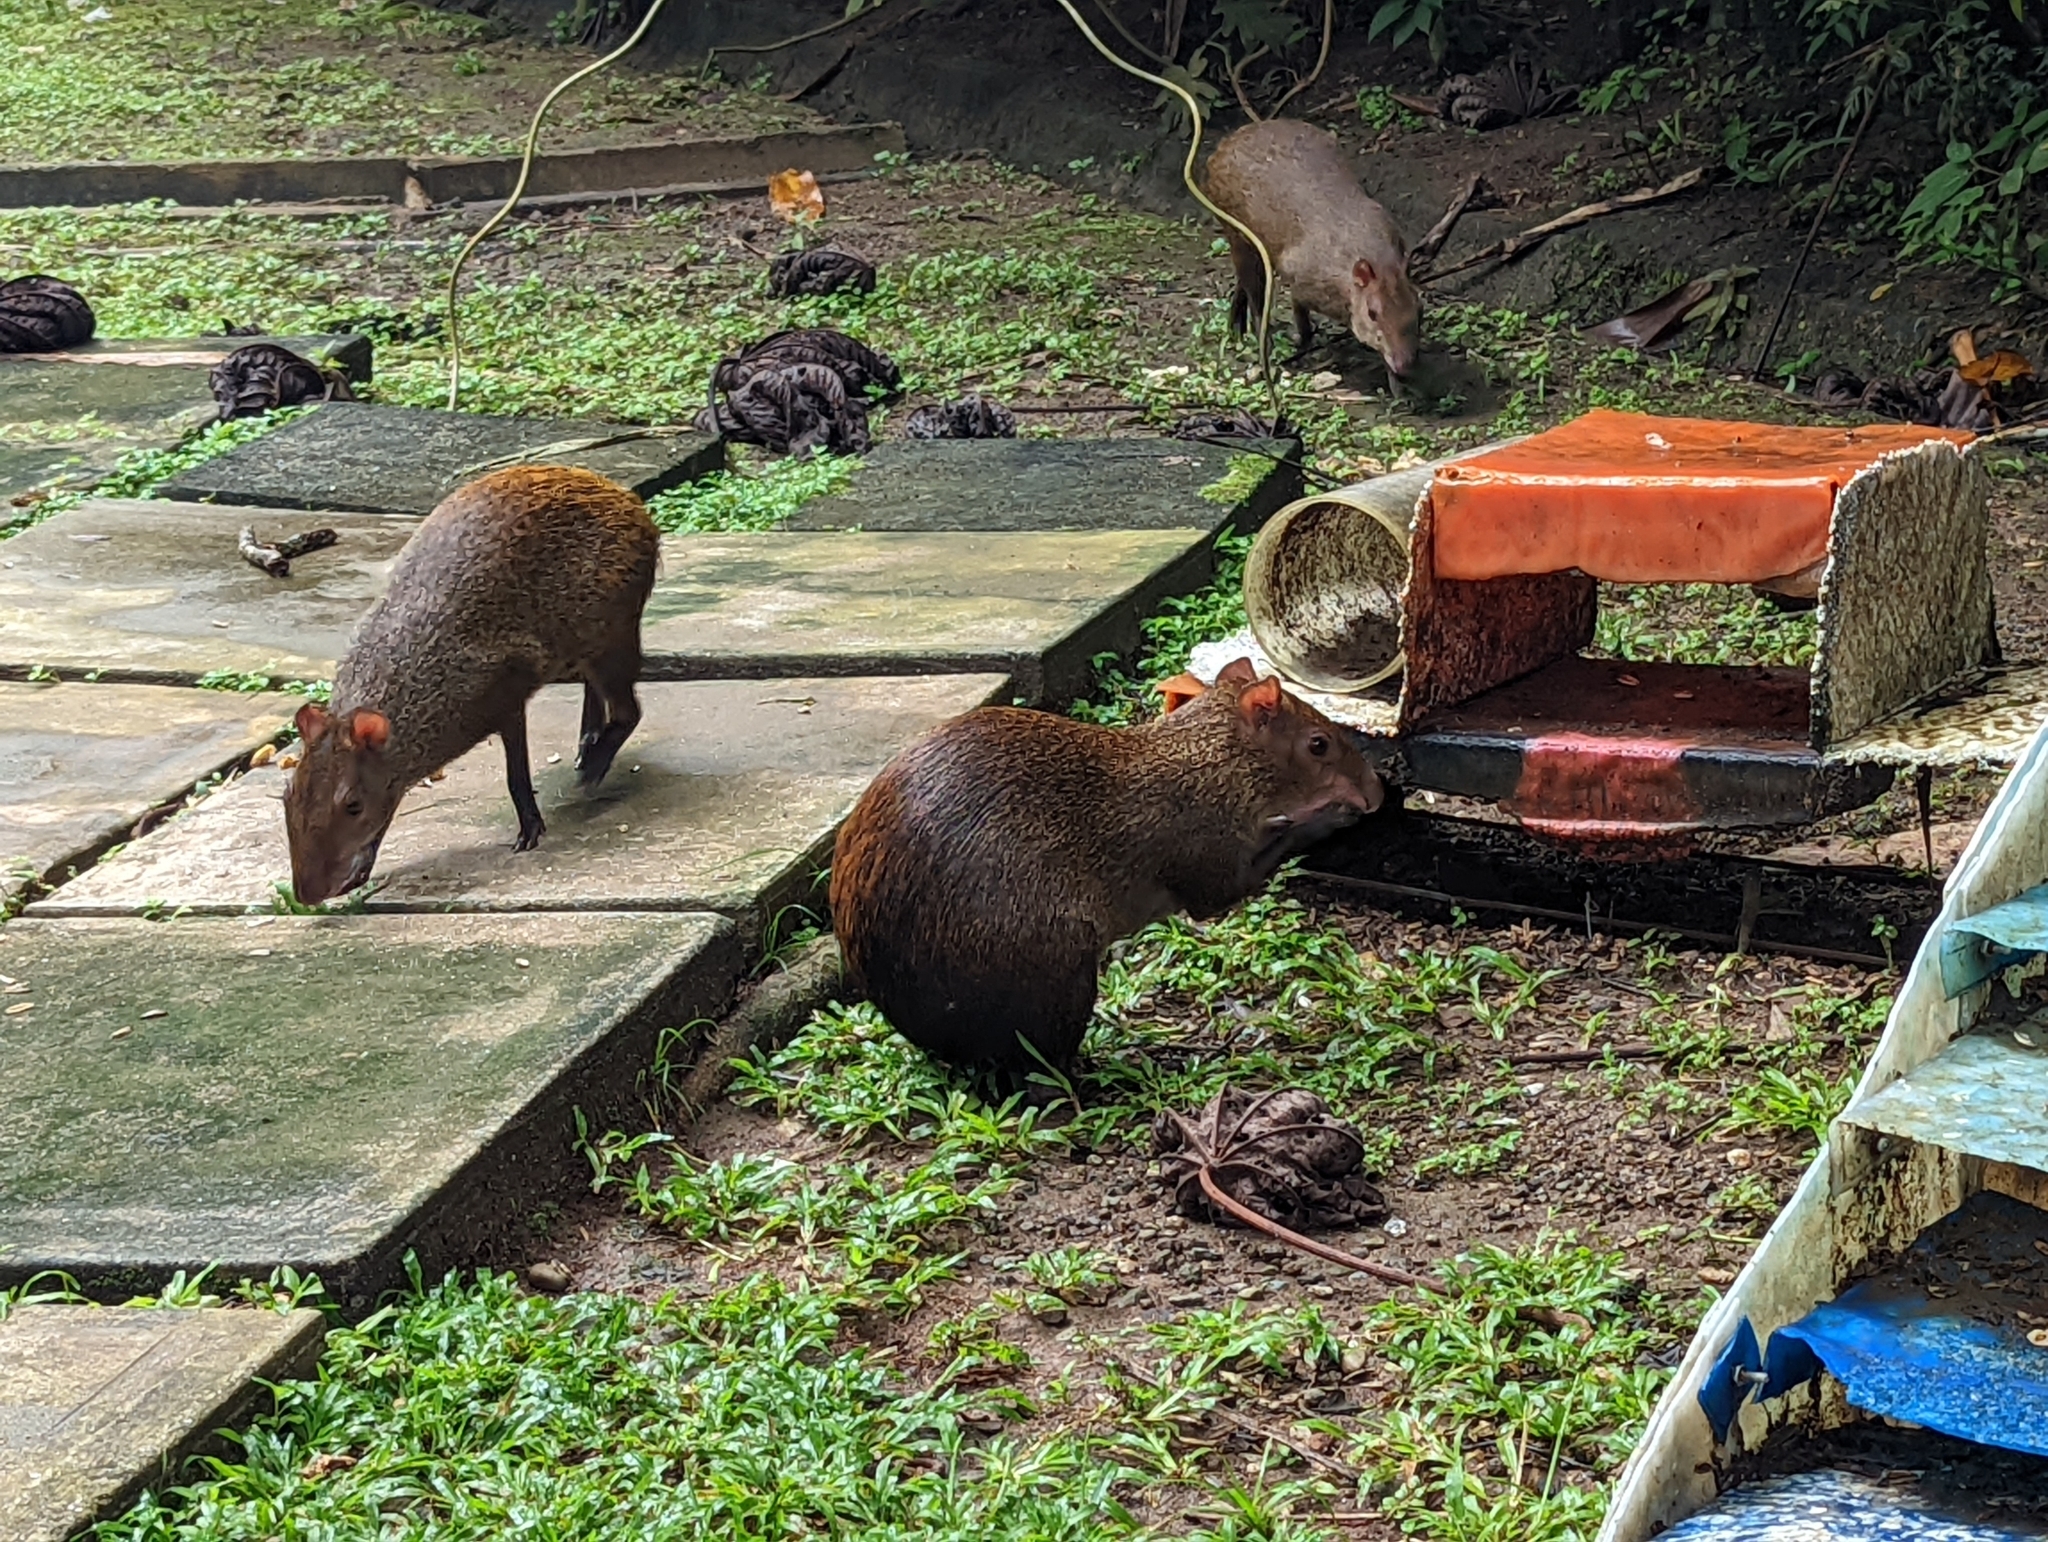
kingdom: Animalia
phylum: Chordata
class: Mammalia
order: Rodentia
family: Dasyproctidae
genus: Dasyprocta
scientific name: Dasyprocta punctata
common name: Central american agouti
